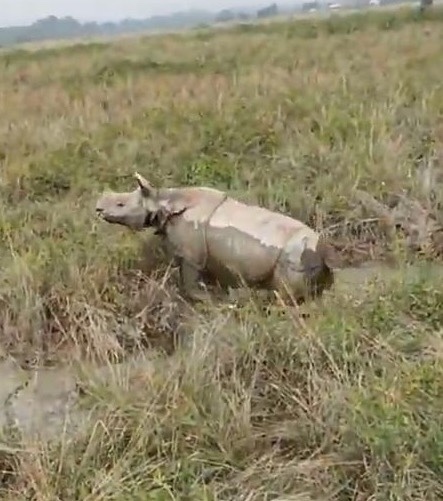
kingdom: Animalia
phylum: Chordata
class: Mammalia
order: Perissodactyla
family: Rhinocerotidae
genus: Rhinoceros
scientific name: Rhinoceros unicornis
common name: Indian rhinoceros
